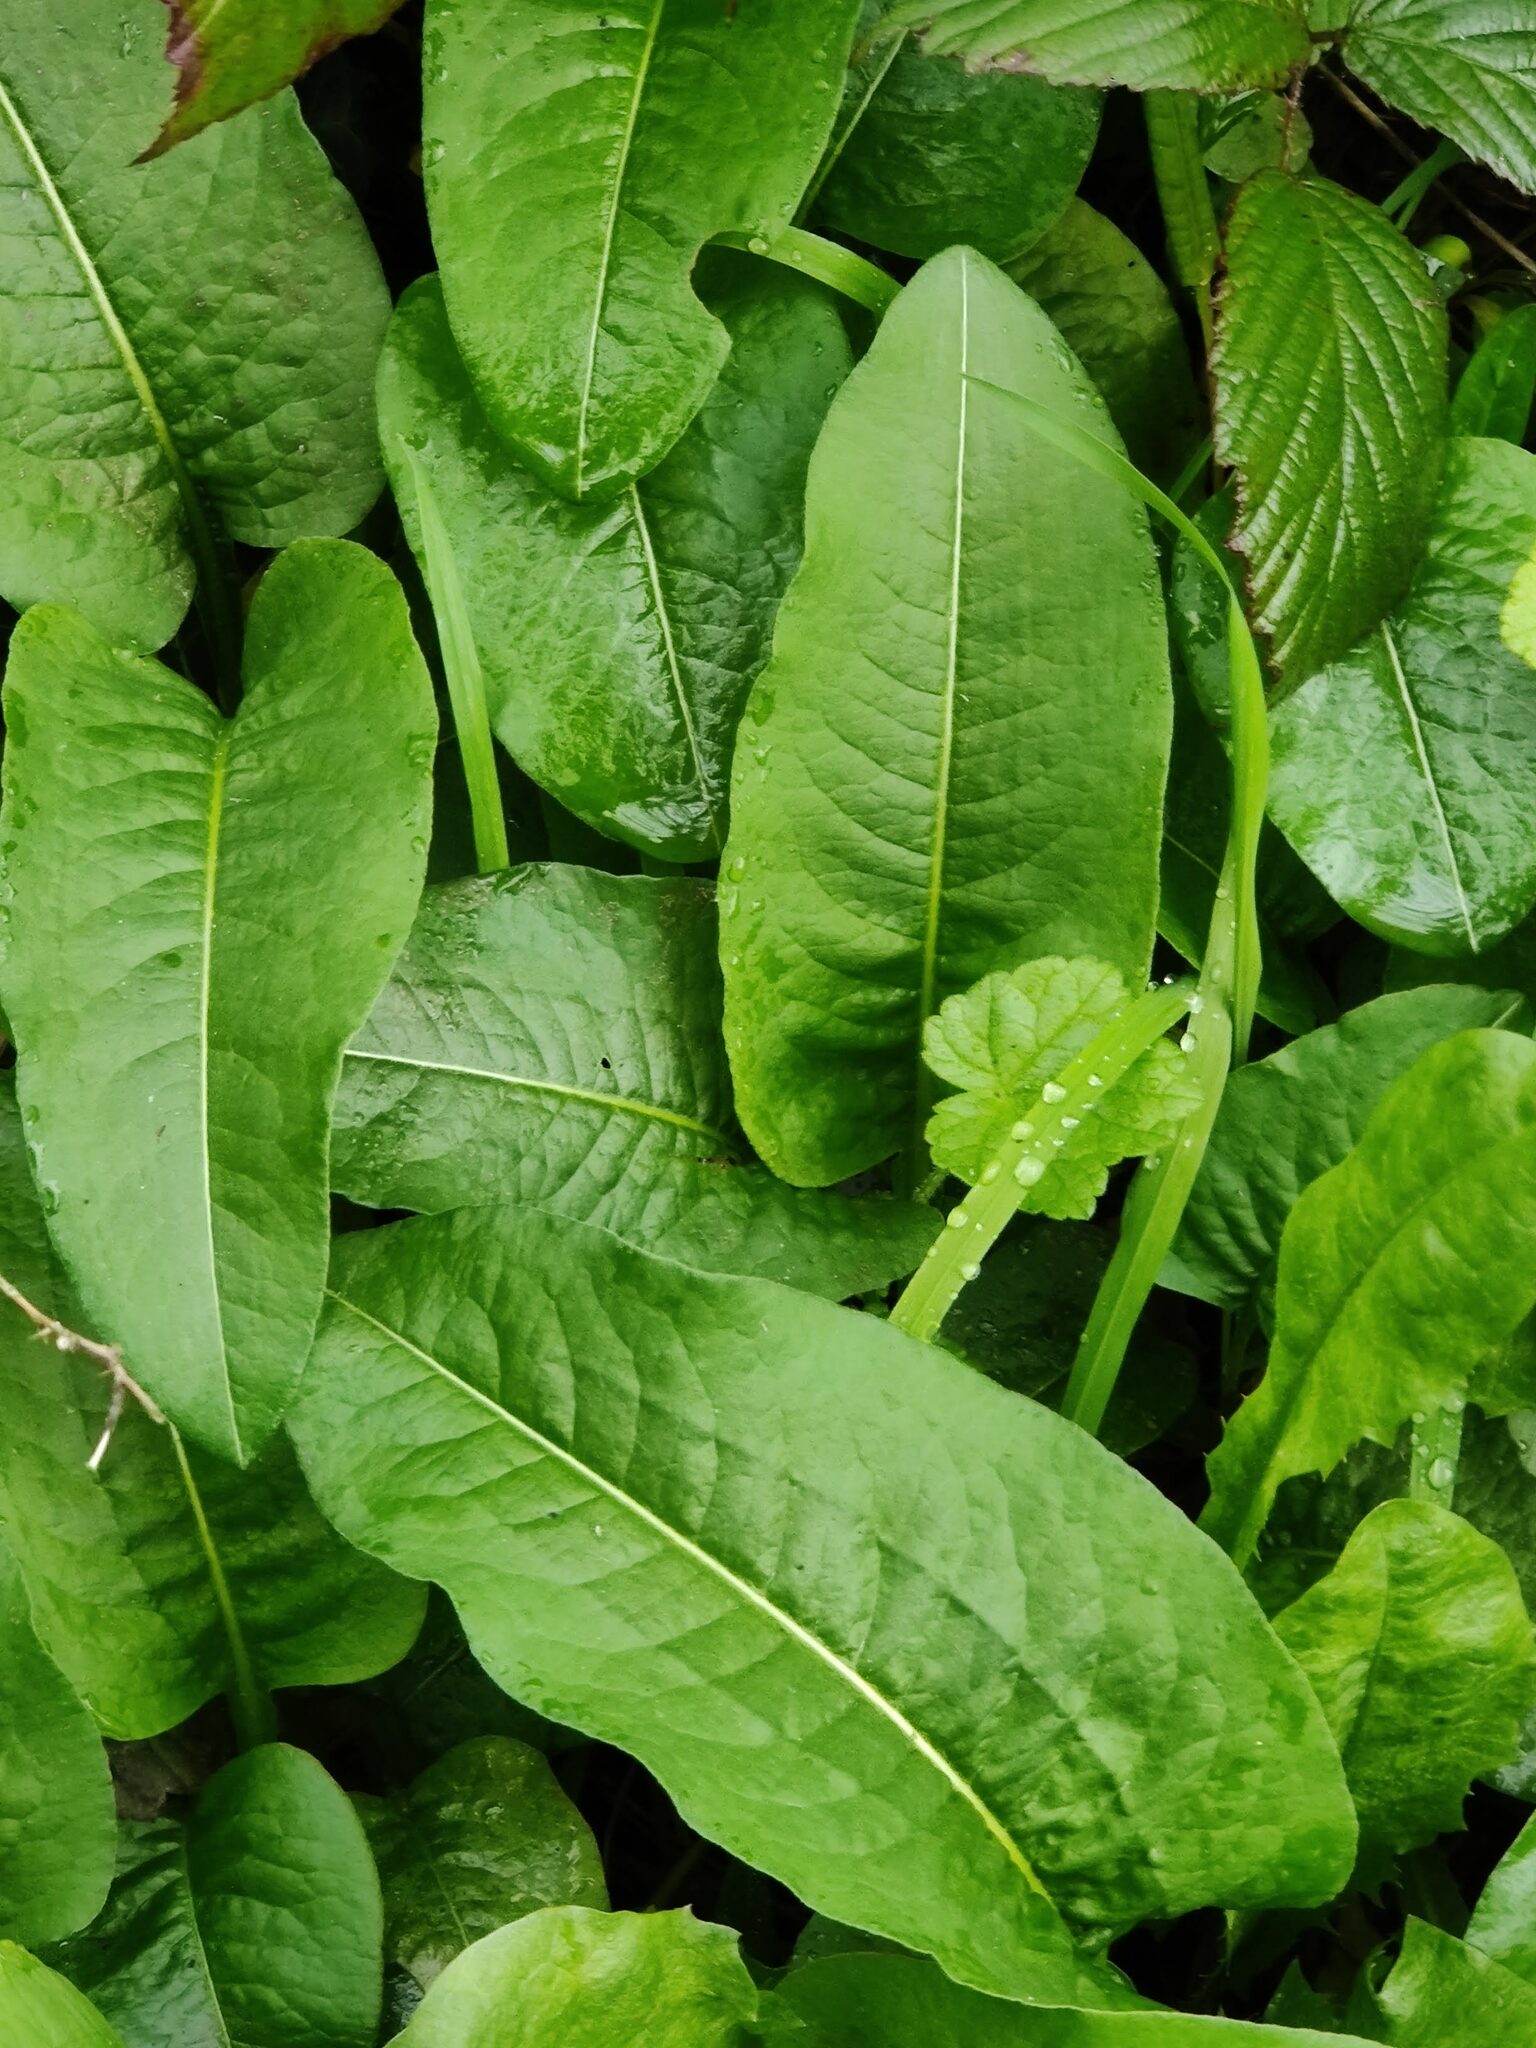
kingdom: Plantae
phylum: Tracheophyta
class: Magnoliopsida
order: Caryophyllales
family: Polygonaceae
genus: Bistorta
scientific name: Bistorta officinalis
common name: Common bistort
